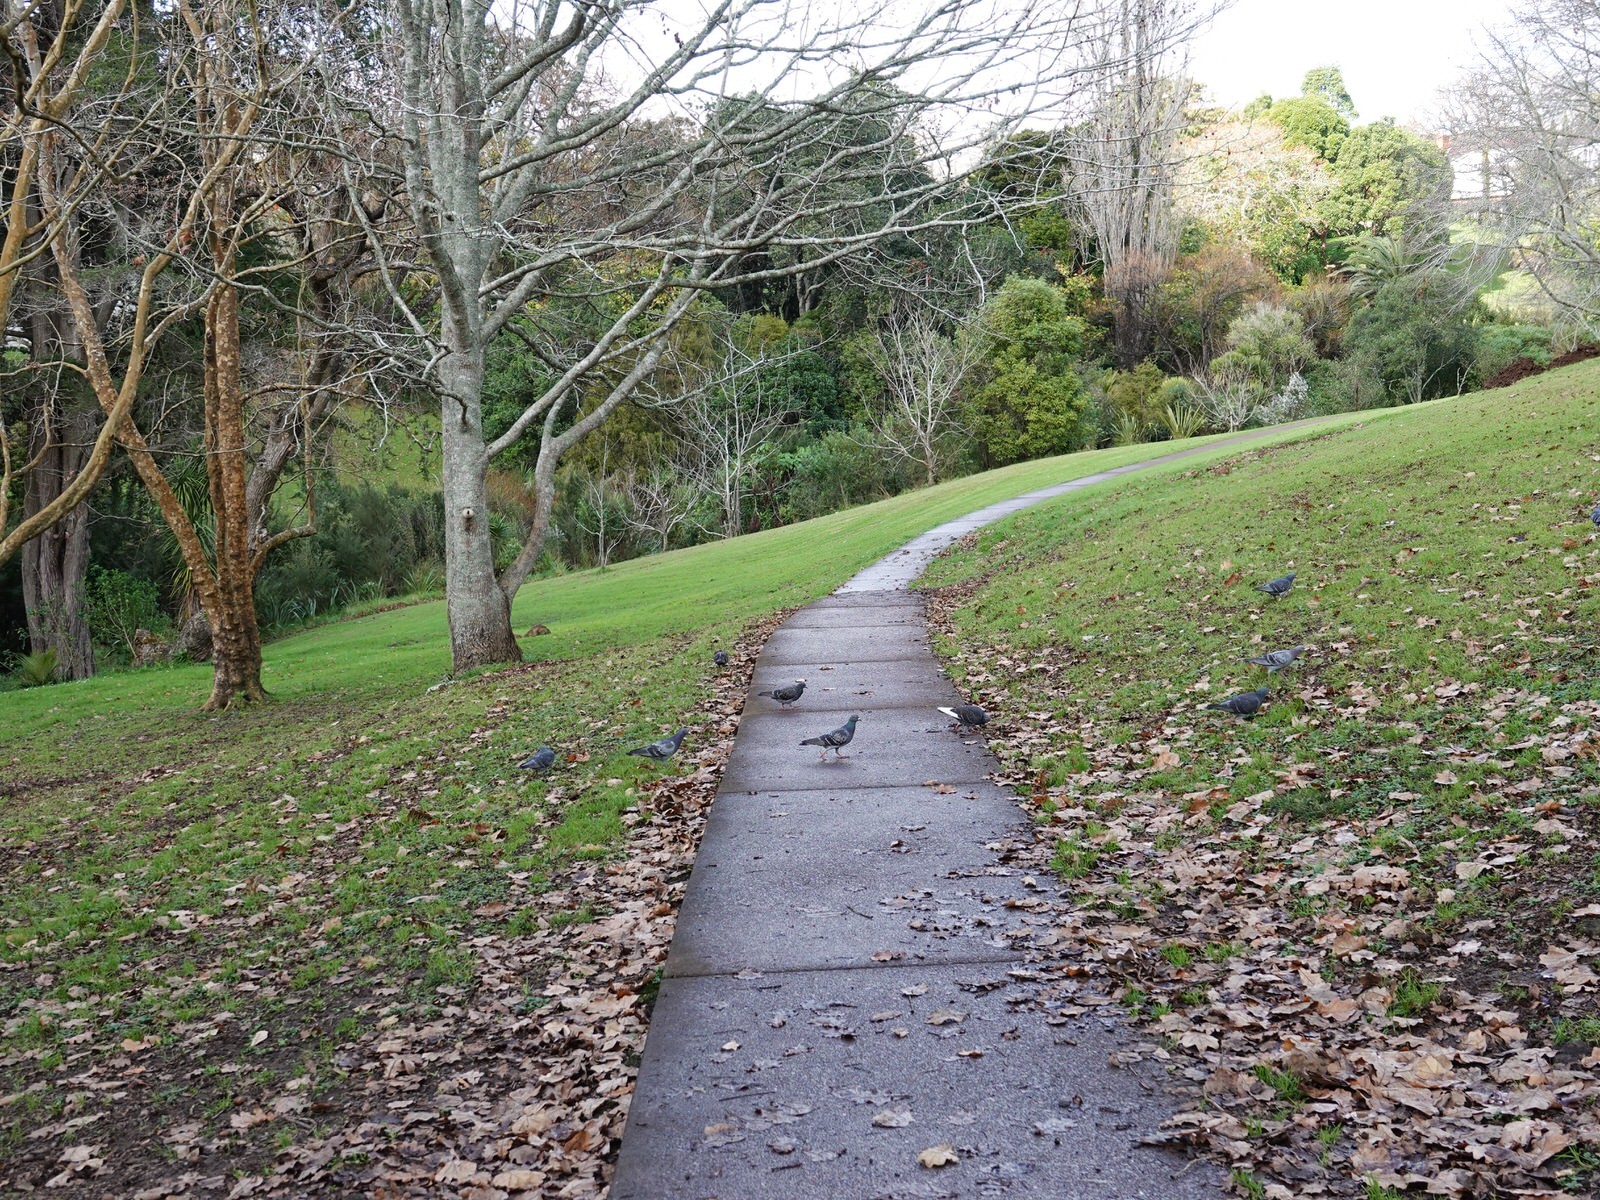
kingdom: Animalia
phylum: Chordata
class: Aves
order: Columbiformes
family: Columbidae
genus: Columba
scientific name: Columba livia
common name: Rock pigeon
